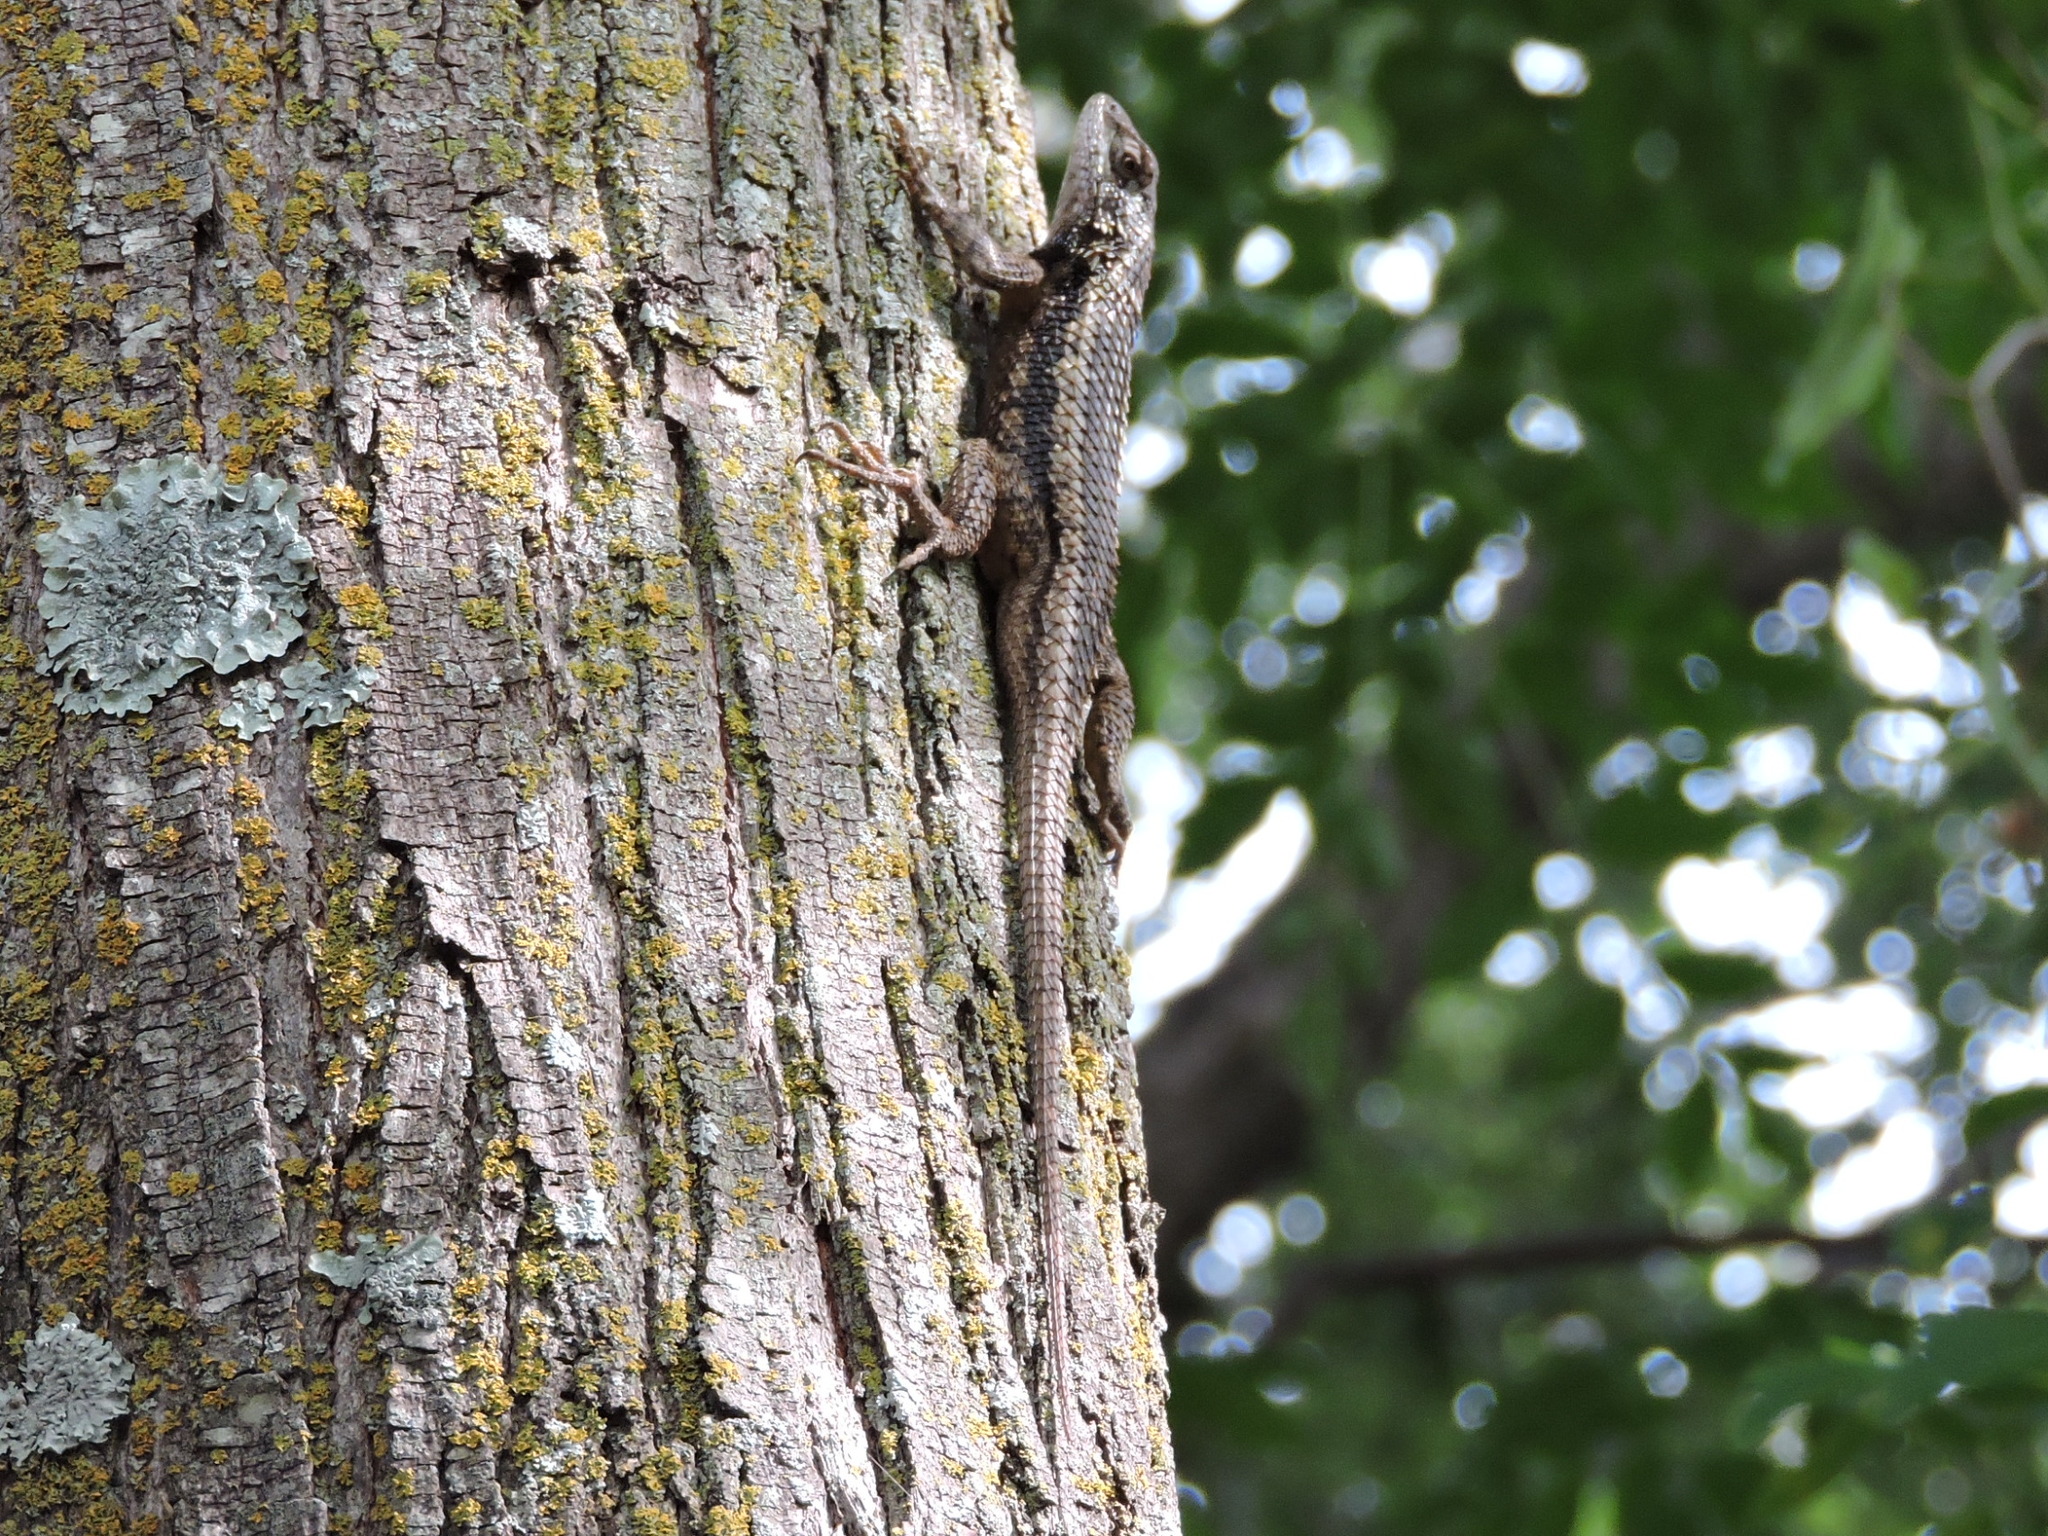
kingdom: Animalia
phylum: Chordata
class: Squamata
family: Phrynosomatidae
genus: Sceloporus
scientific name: Sceloporus olivaceus
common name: Texas spiny lizard
